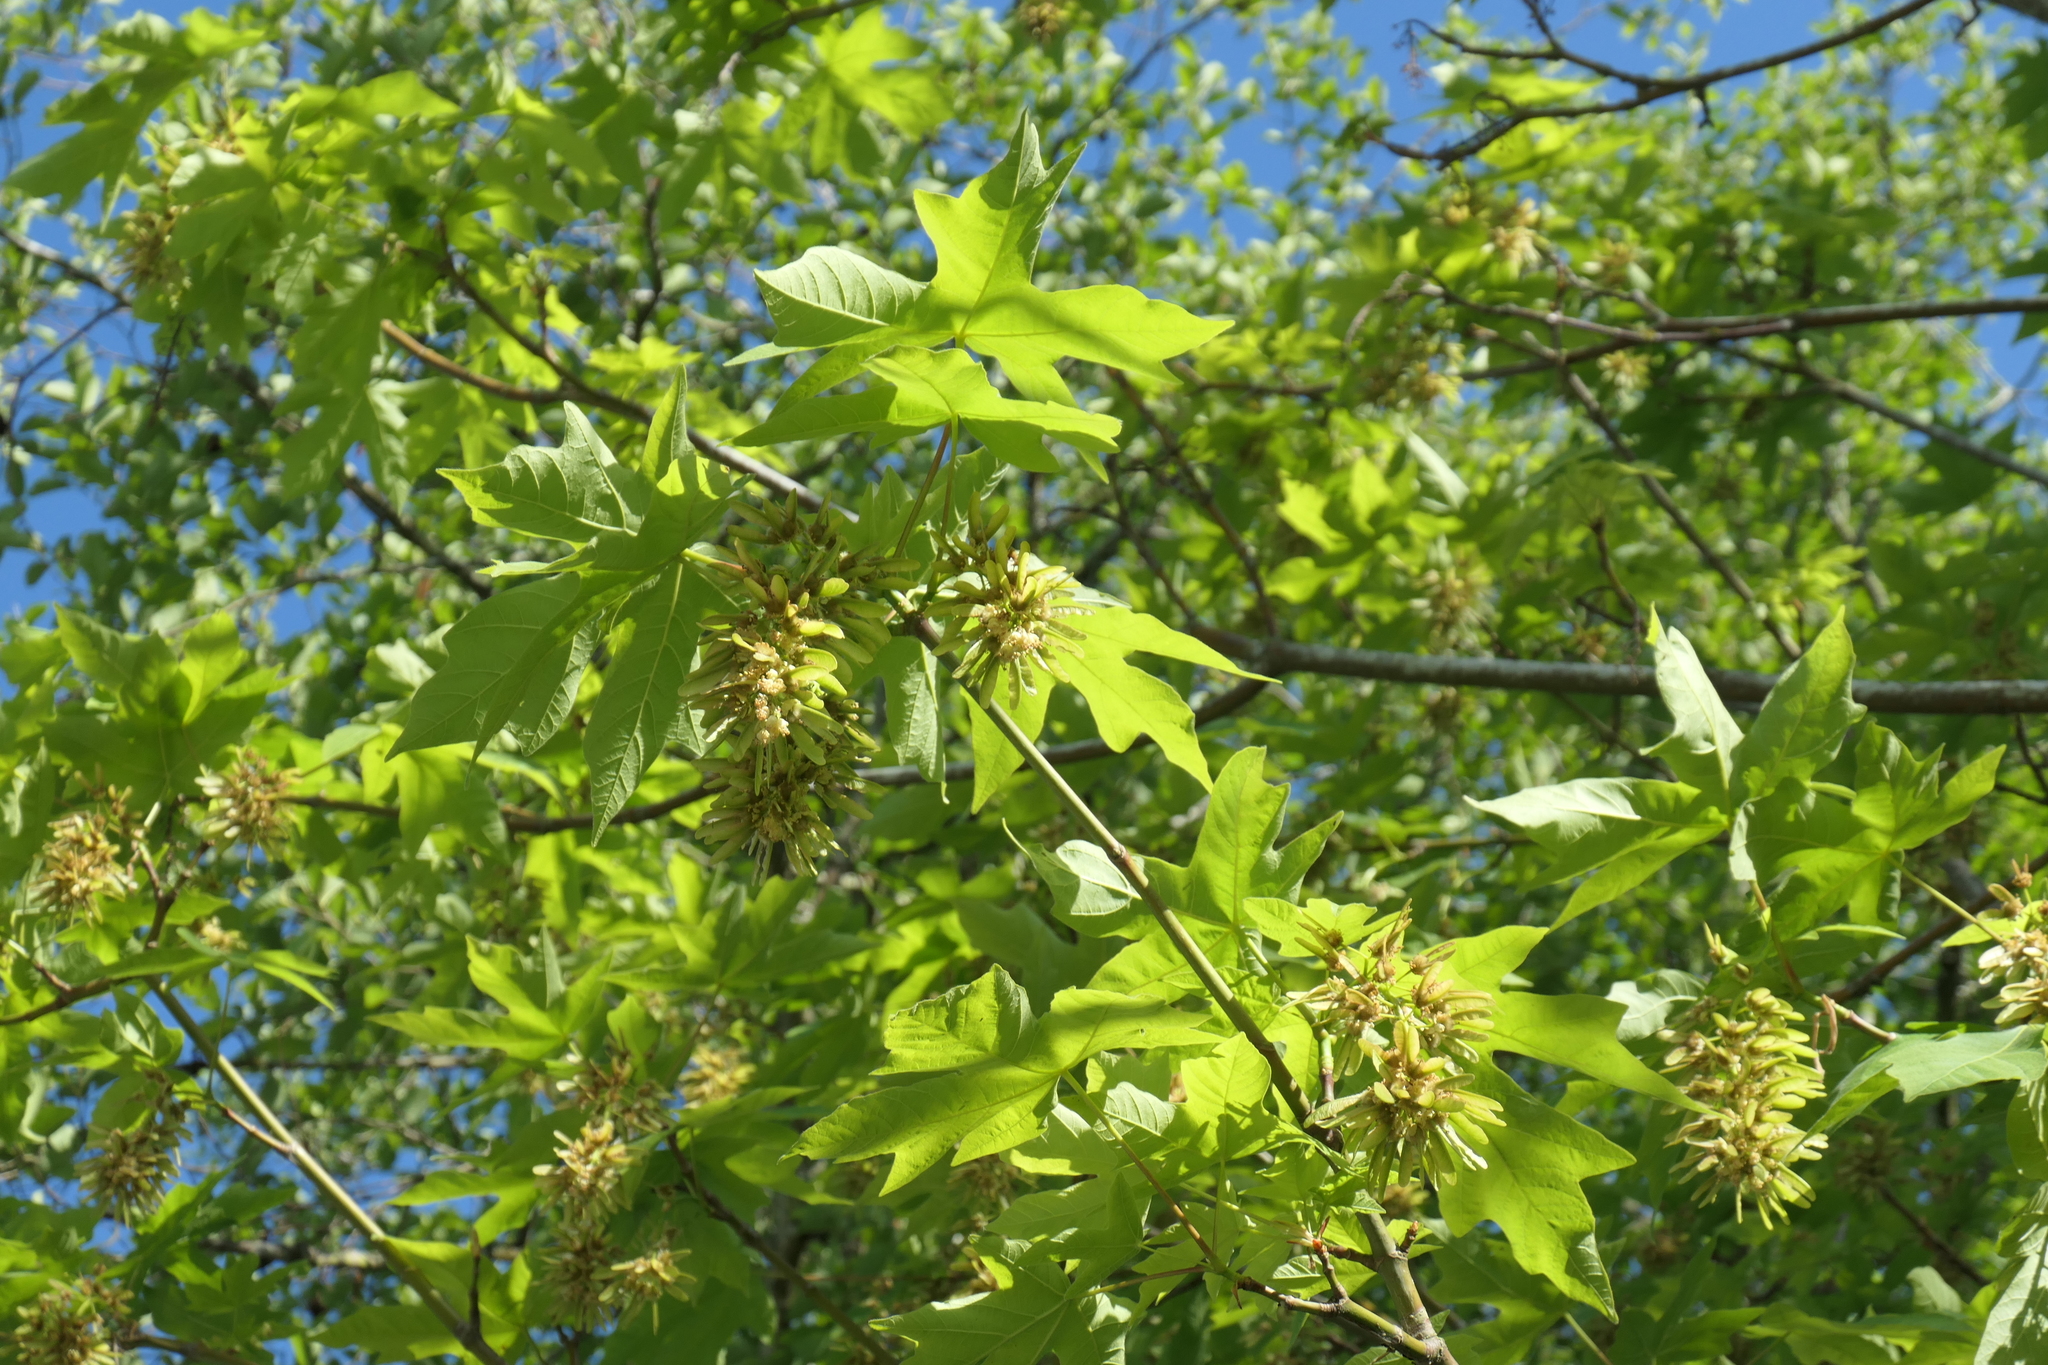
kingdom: Plantae
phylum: Tracheophyta
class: Magnoliopsida
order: Sapindales
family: Sapindaceae
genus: Acer
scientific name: Acer macrophyllum
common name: Oregon maple
